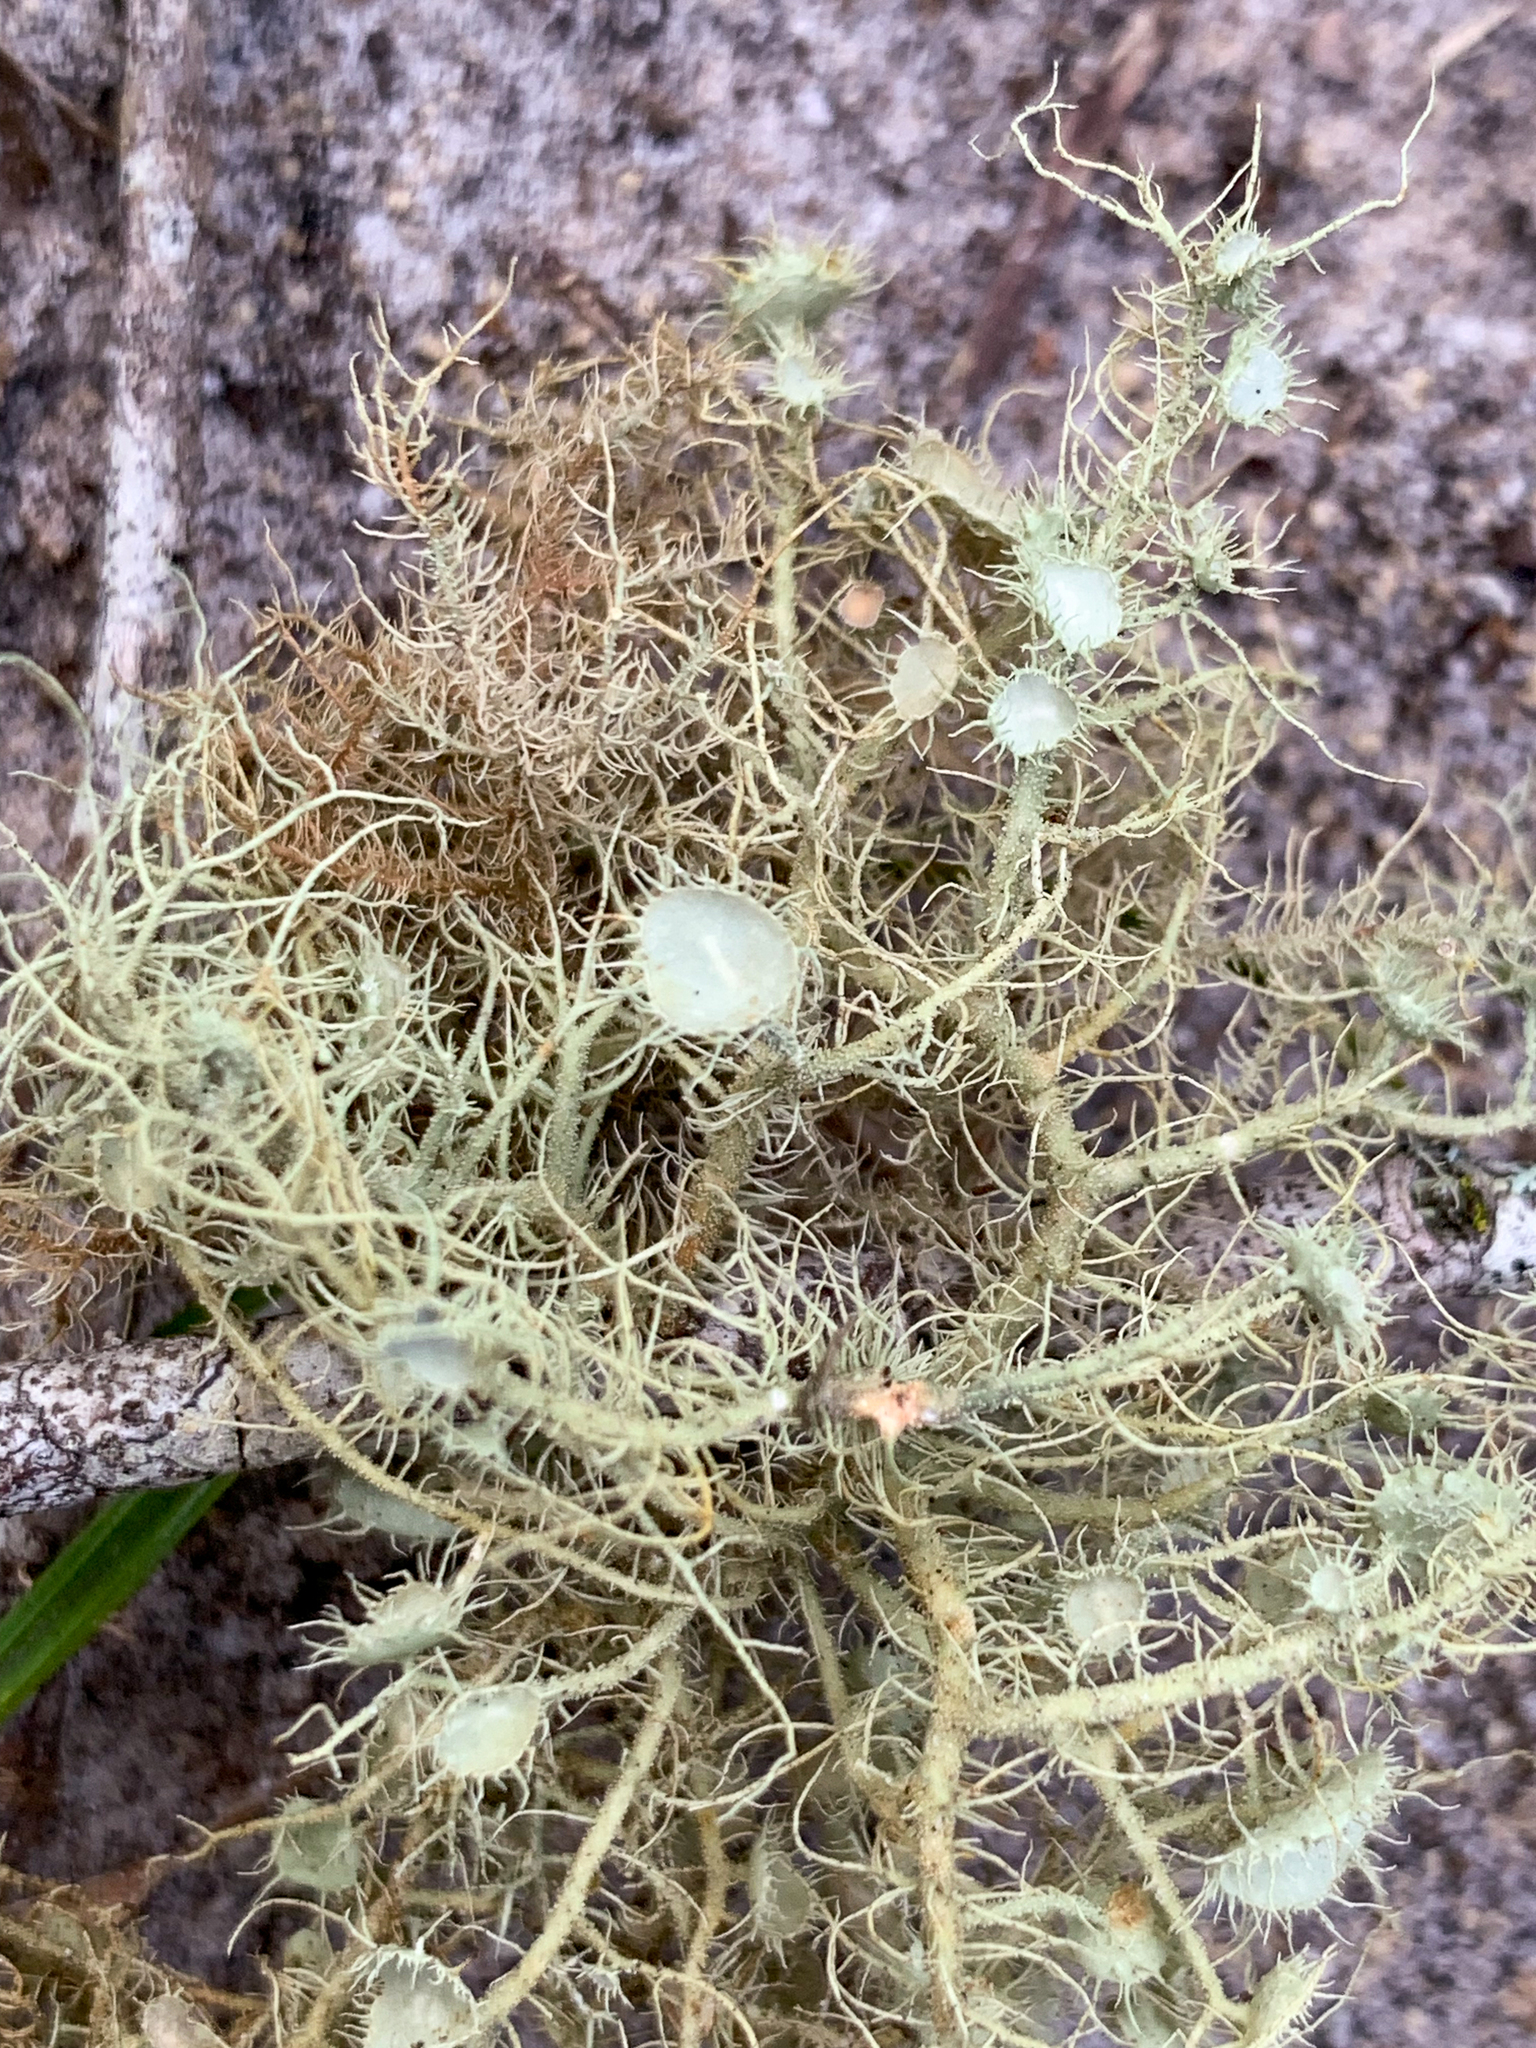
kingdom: Fungi
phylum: Ascomycota
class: Lecanoromycetes
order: Lecanorales
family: Parmeliaceae
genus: Usnea
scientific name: Usnea strigosa
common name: Bushy beard lichen
